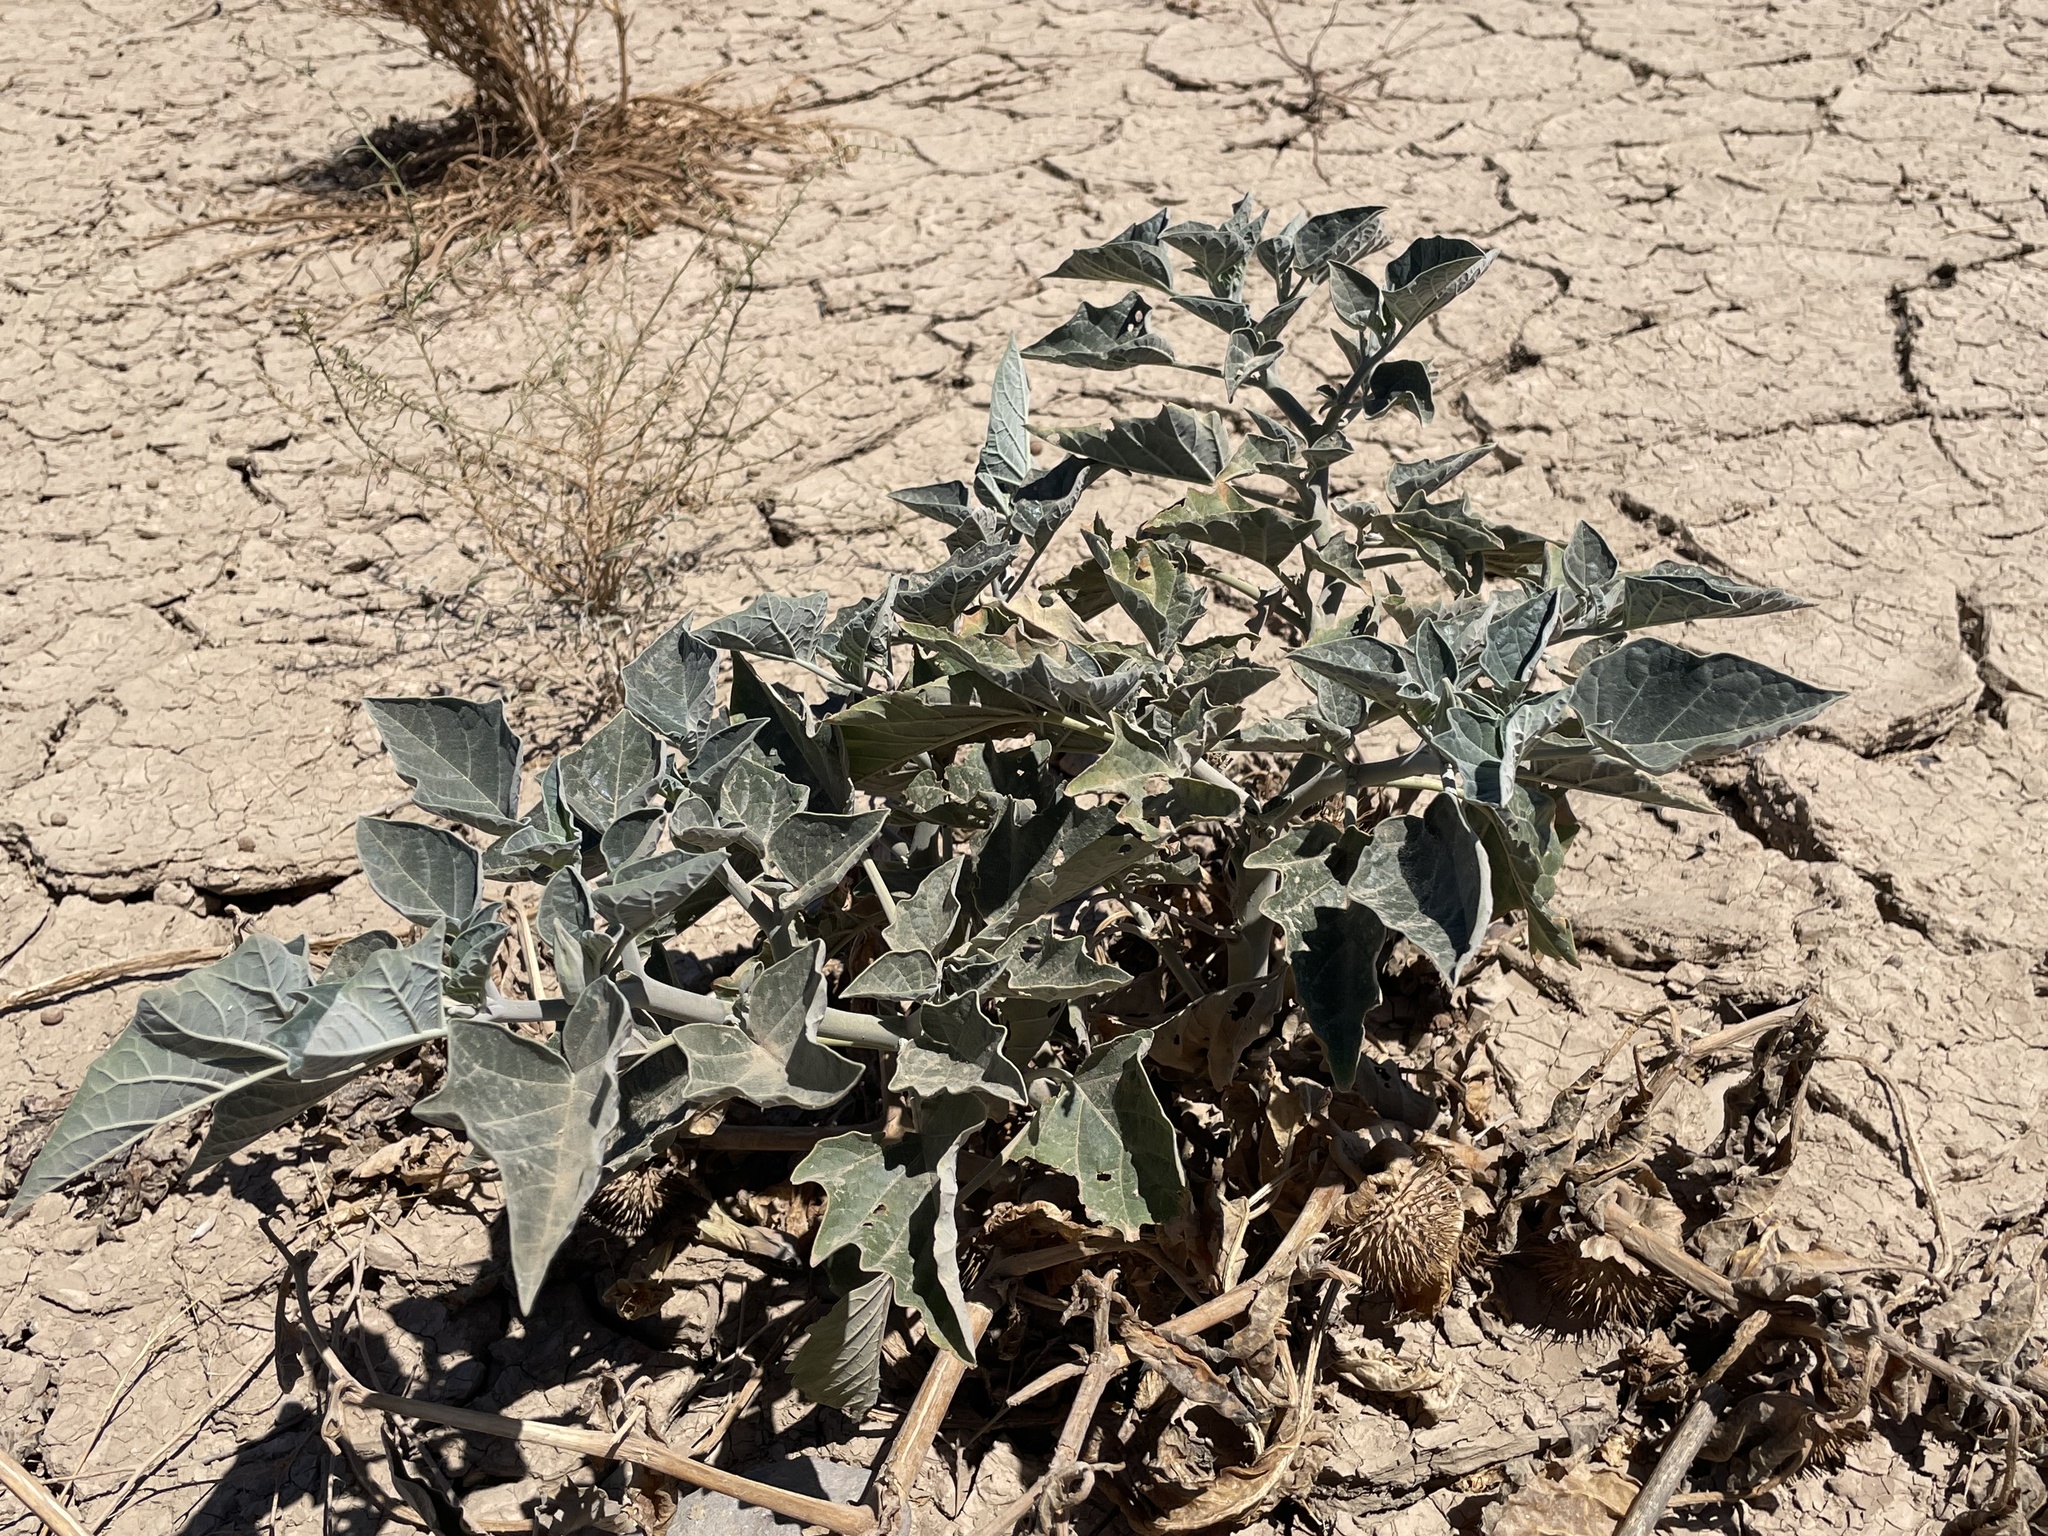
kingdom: Plantae
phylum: Tracheophyta
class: Magnoliopsida
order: Solanales
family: Solanaceae
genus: Datura
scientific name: Datura wrightii
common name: Sacred thorn-apple
